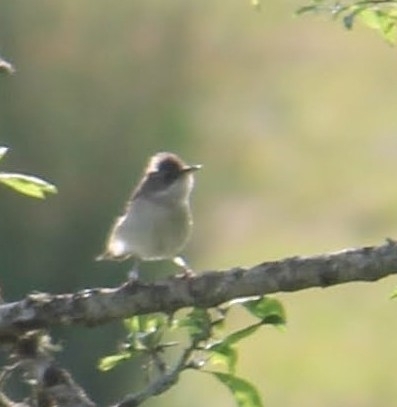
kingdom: Animalia
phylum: Chordata
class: Aves
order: Passeriformes
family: Sylviidae
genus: Sylvia
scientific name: Sylvia communis
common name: Common whitethroat
